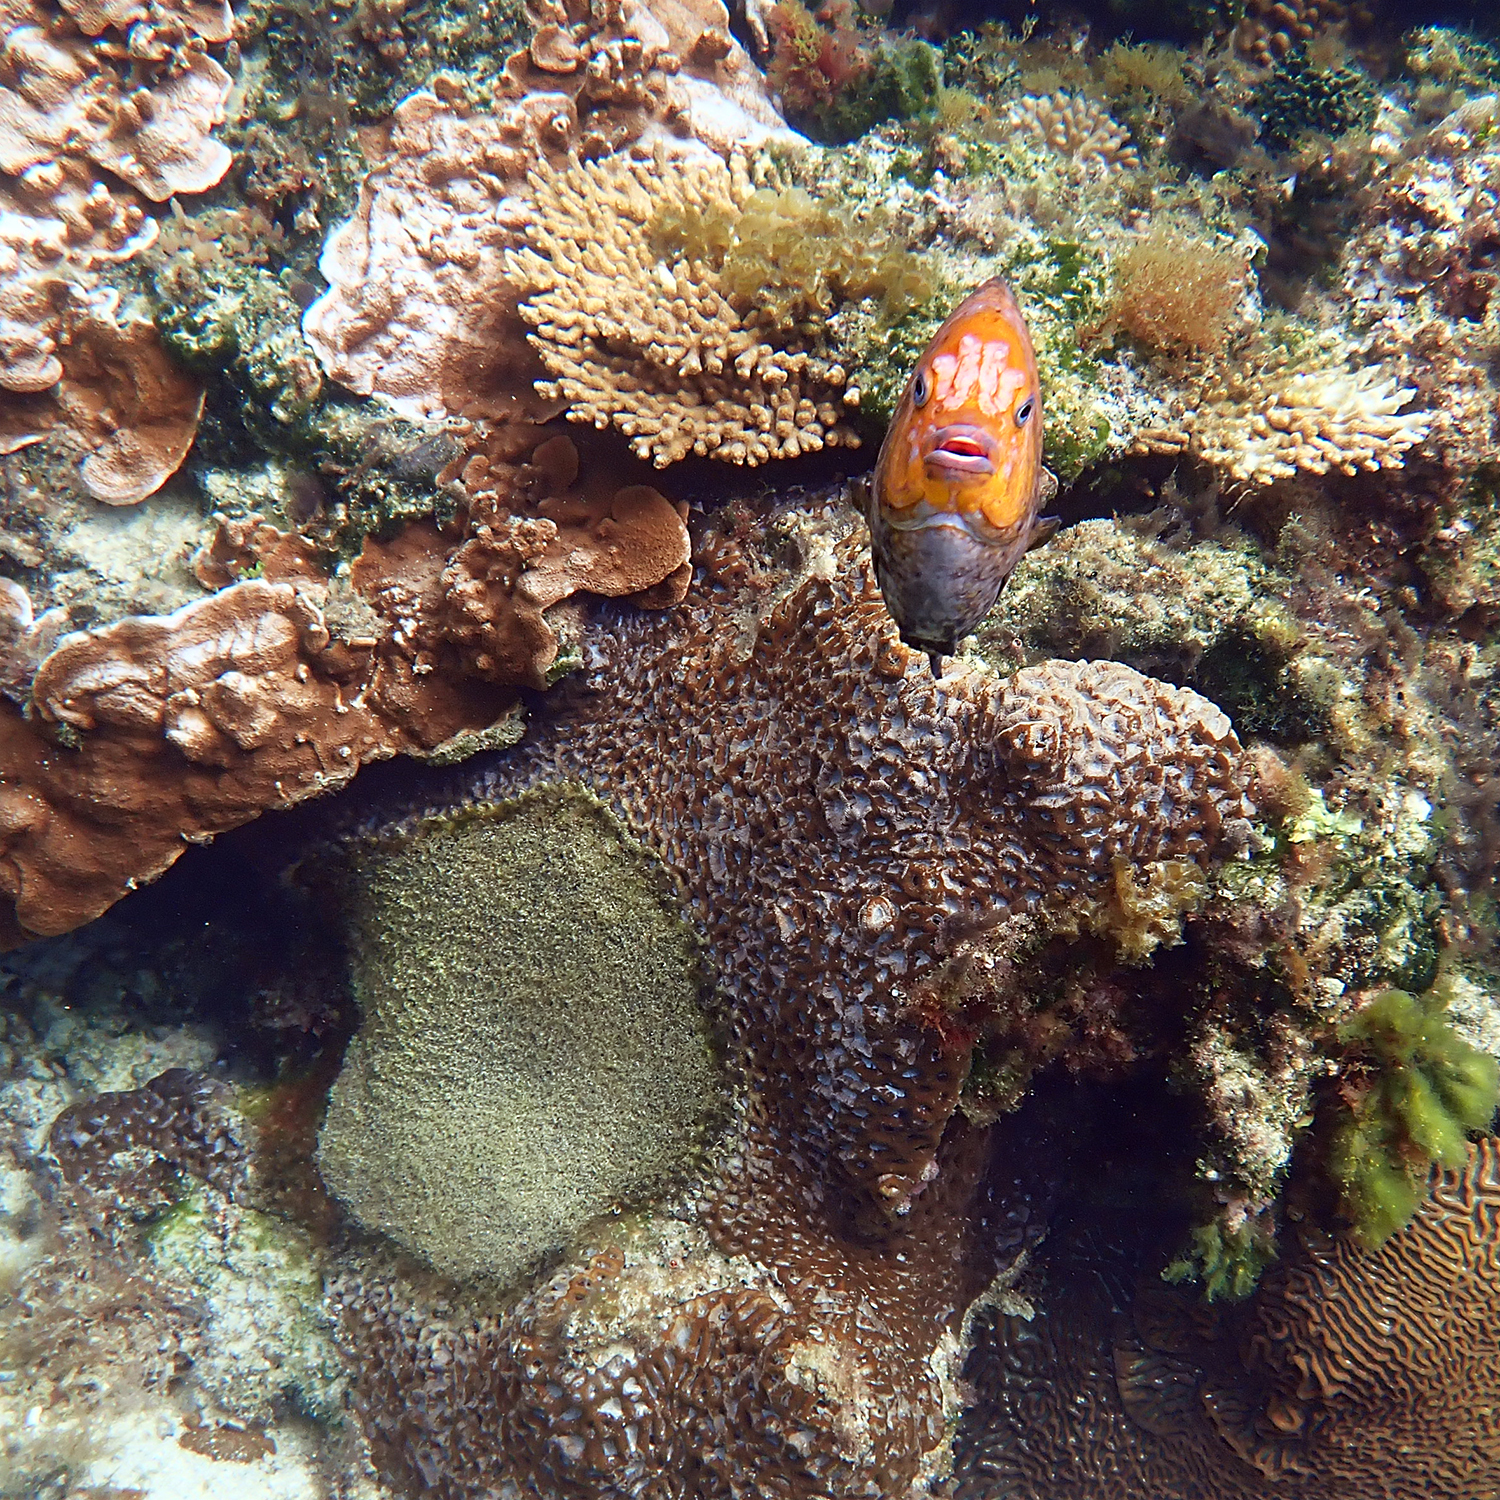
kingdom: Animalia
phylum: Chordata
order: Perciformes
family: Pomacentridae
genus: Parma
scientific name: Parma polylepis
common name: Banded parma
